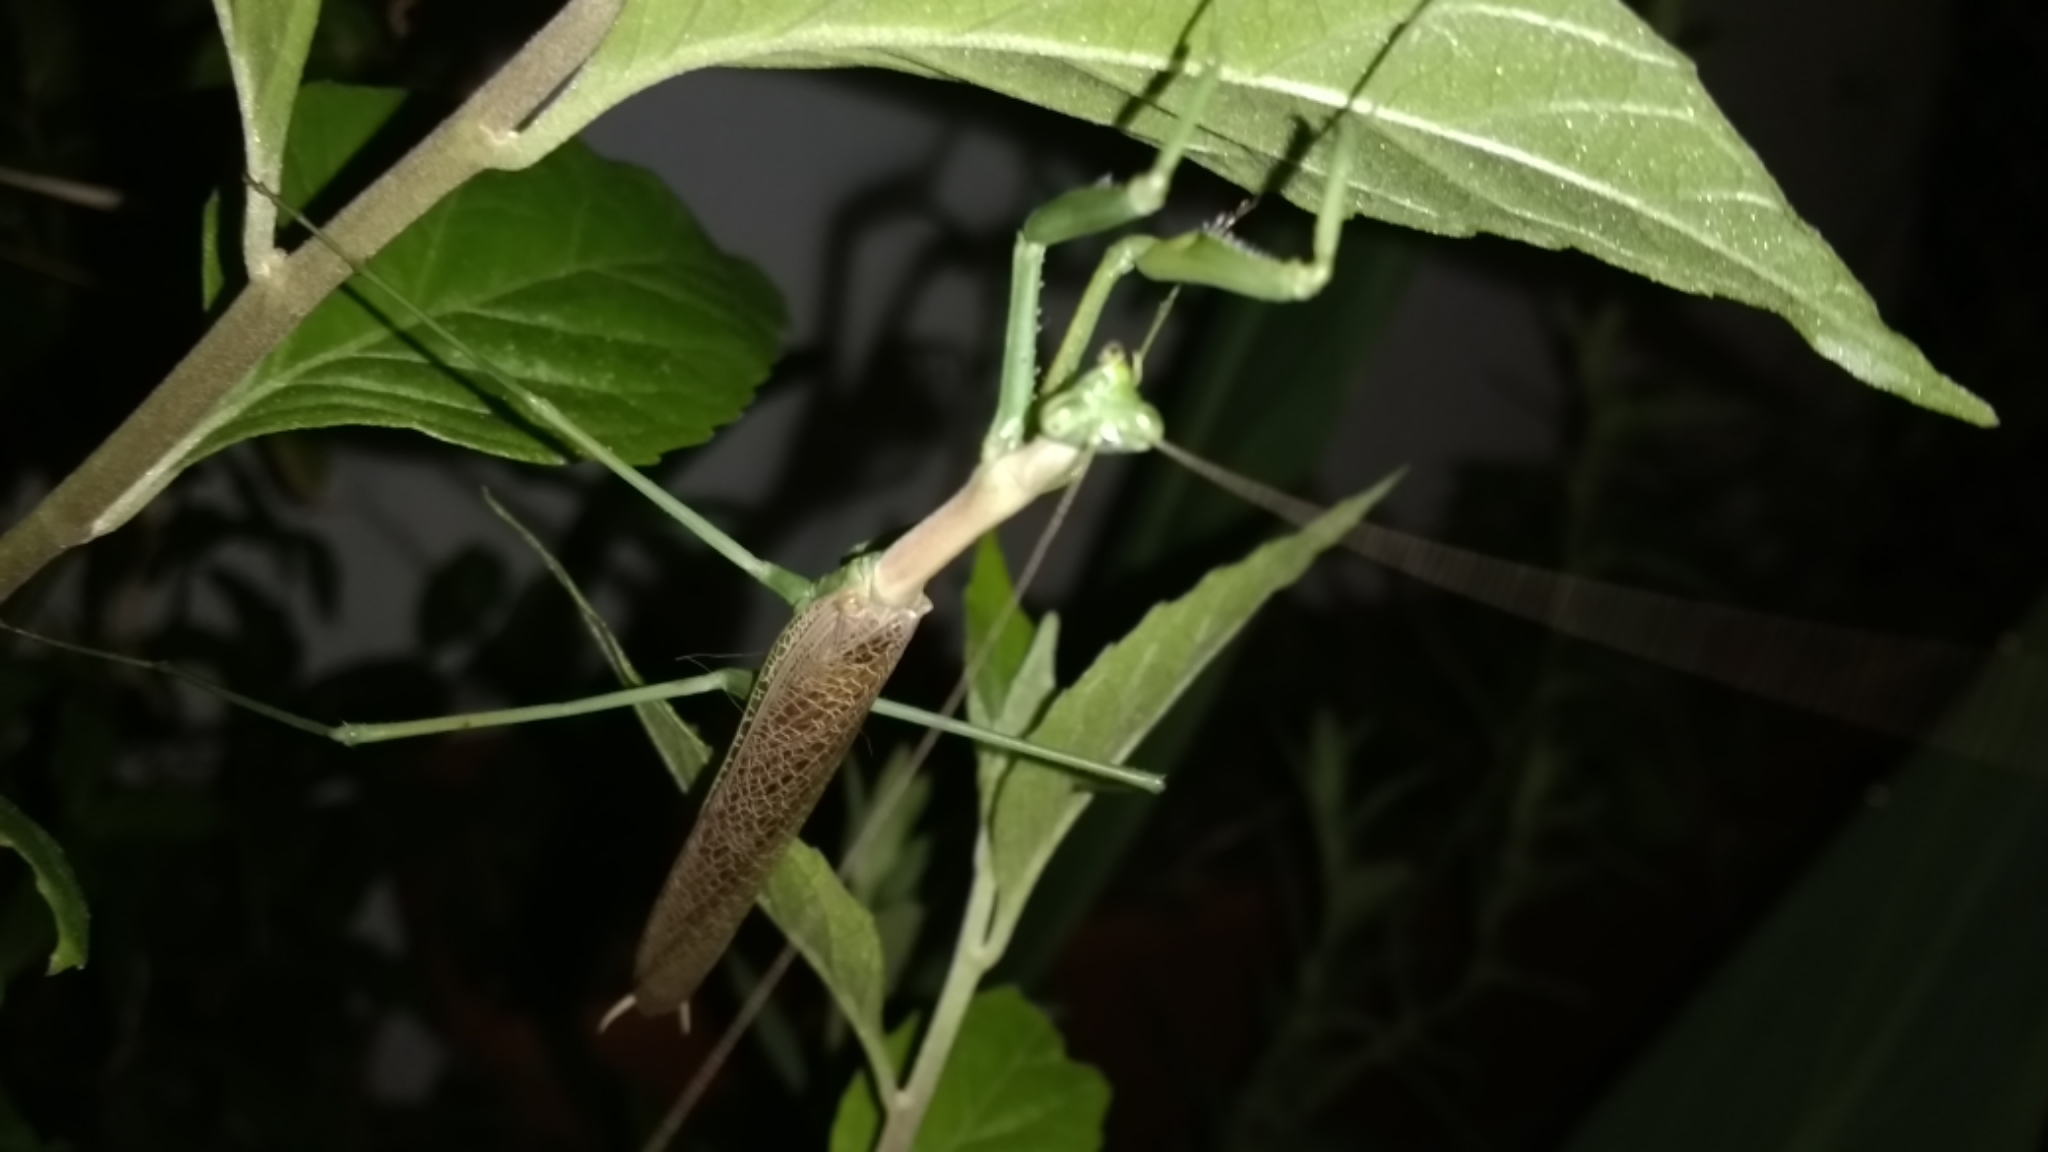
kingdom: Animalia
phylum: Arthropoda
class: Insecta
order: Mantodea
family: Coptopterygidae
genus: Coptopteryx
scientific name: Coptopteryx gayi
